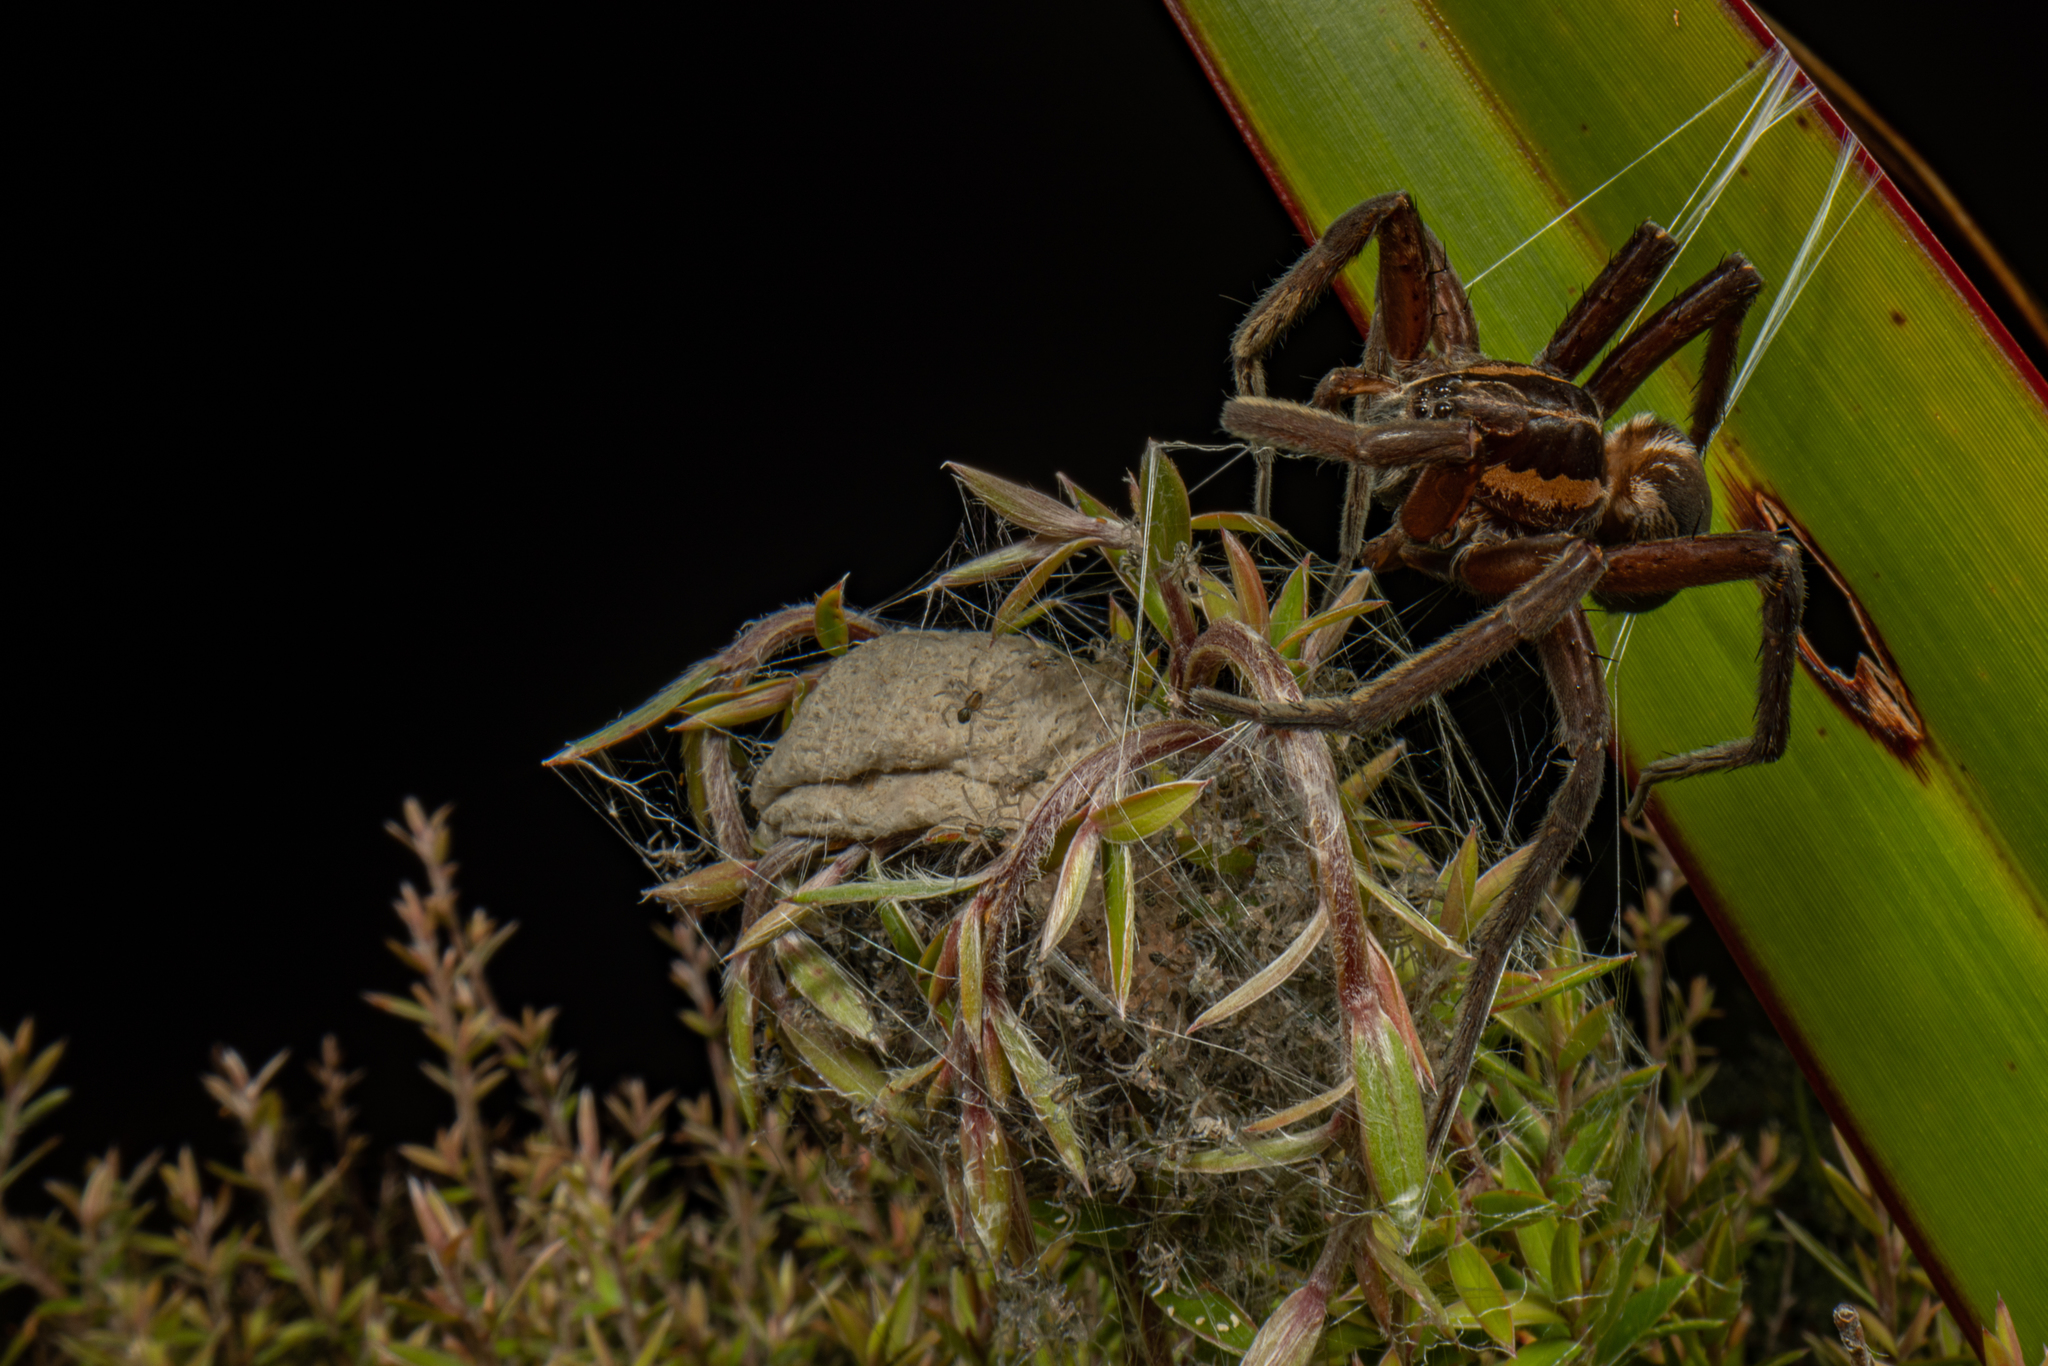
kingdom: Animalia
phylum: Arthropoda
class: Arachnida
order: Araneae
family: Pisauridae
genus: Dolomedes
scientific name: Dolomedes minor
